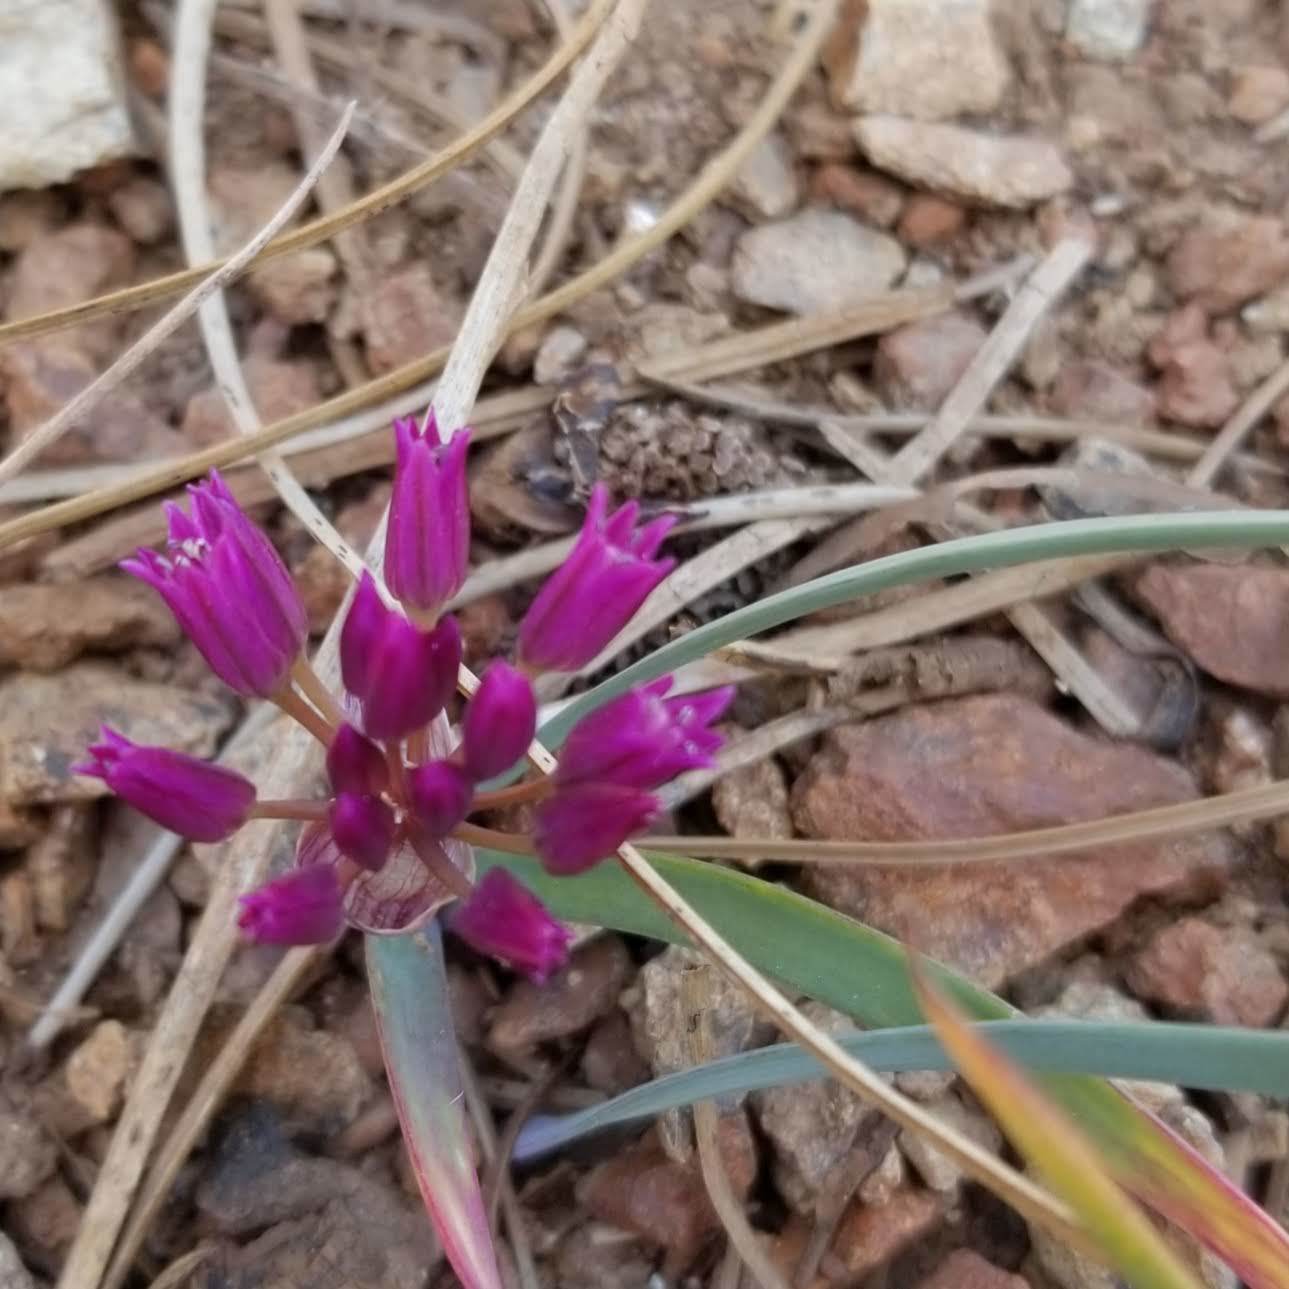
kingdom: Plantae
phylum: Tracheophyta
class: Liliopsida
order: Asparagales
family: Amaryllidaceae
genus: Allium
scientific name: Allium falcifolium
